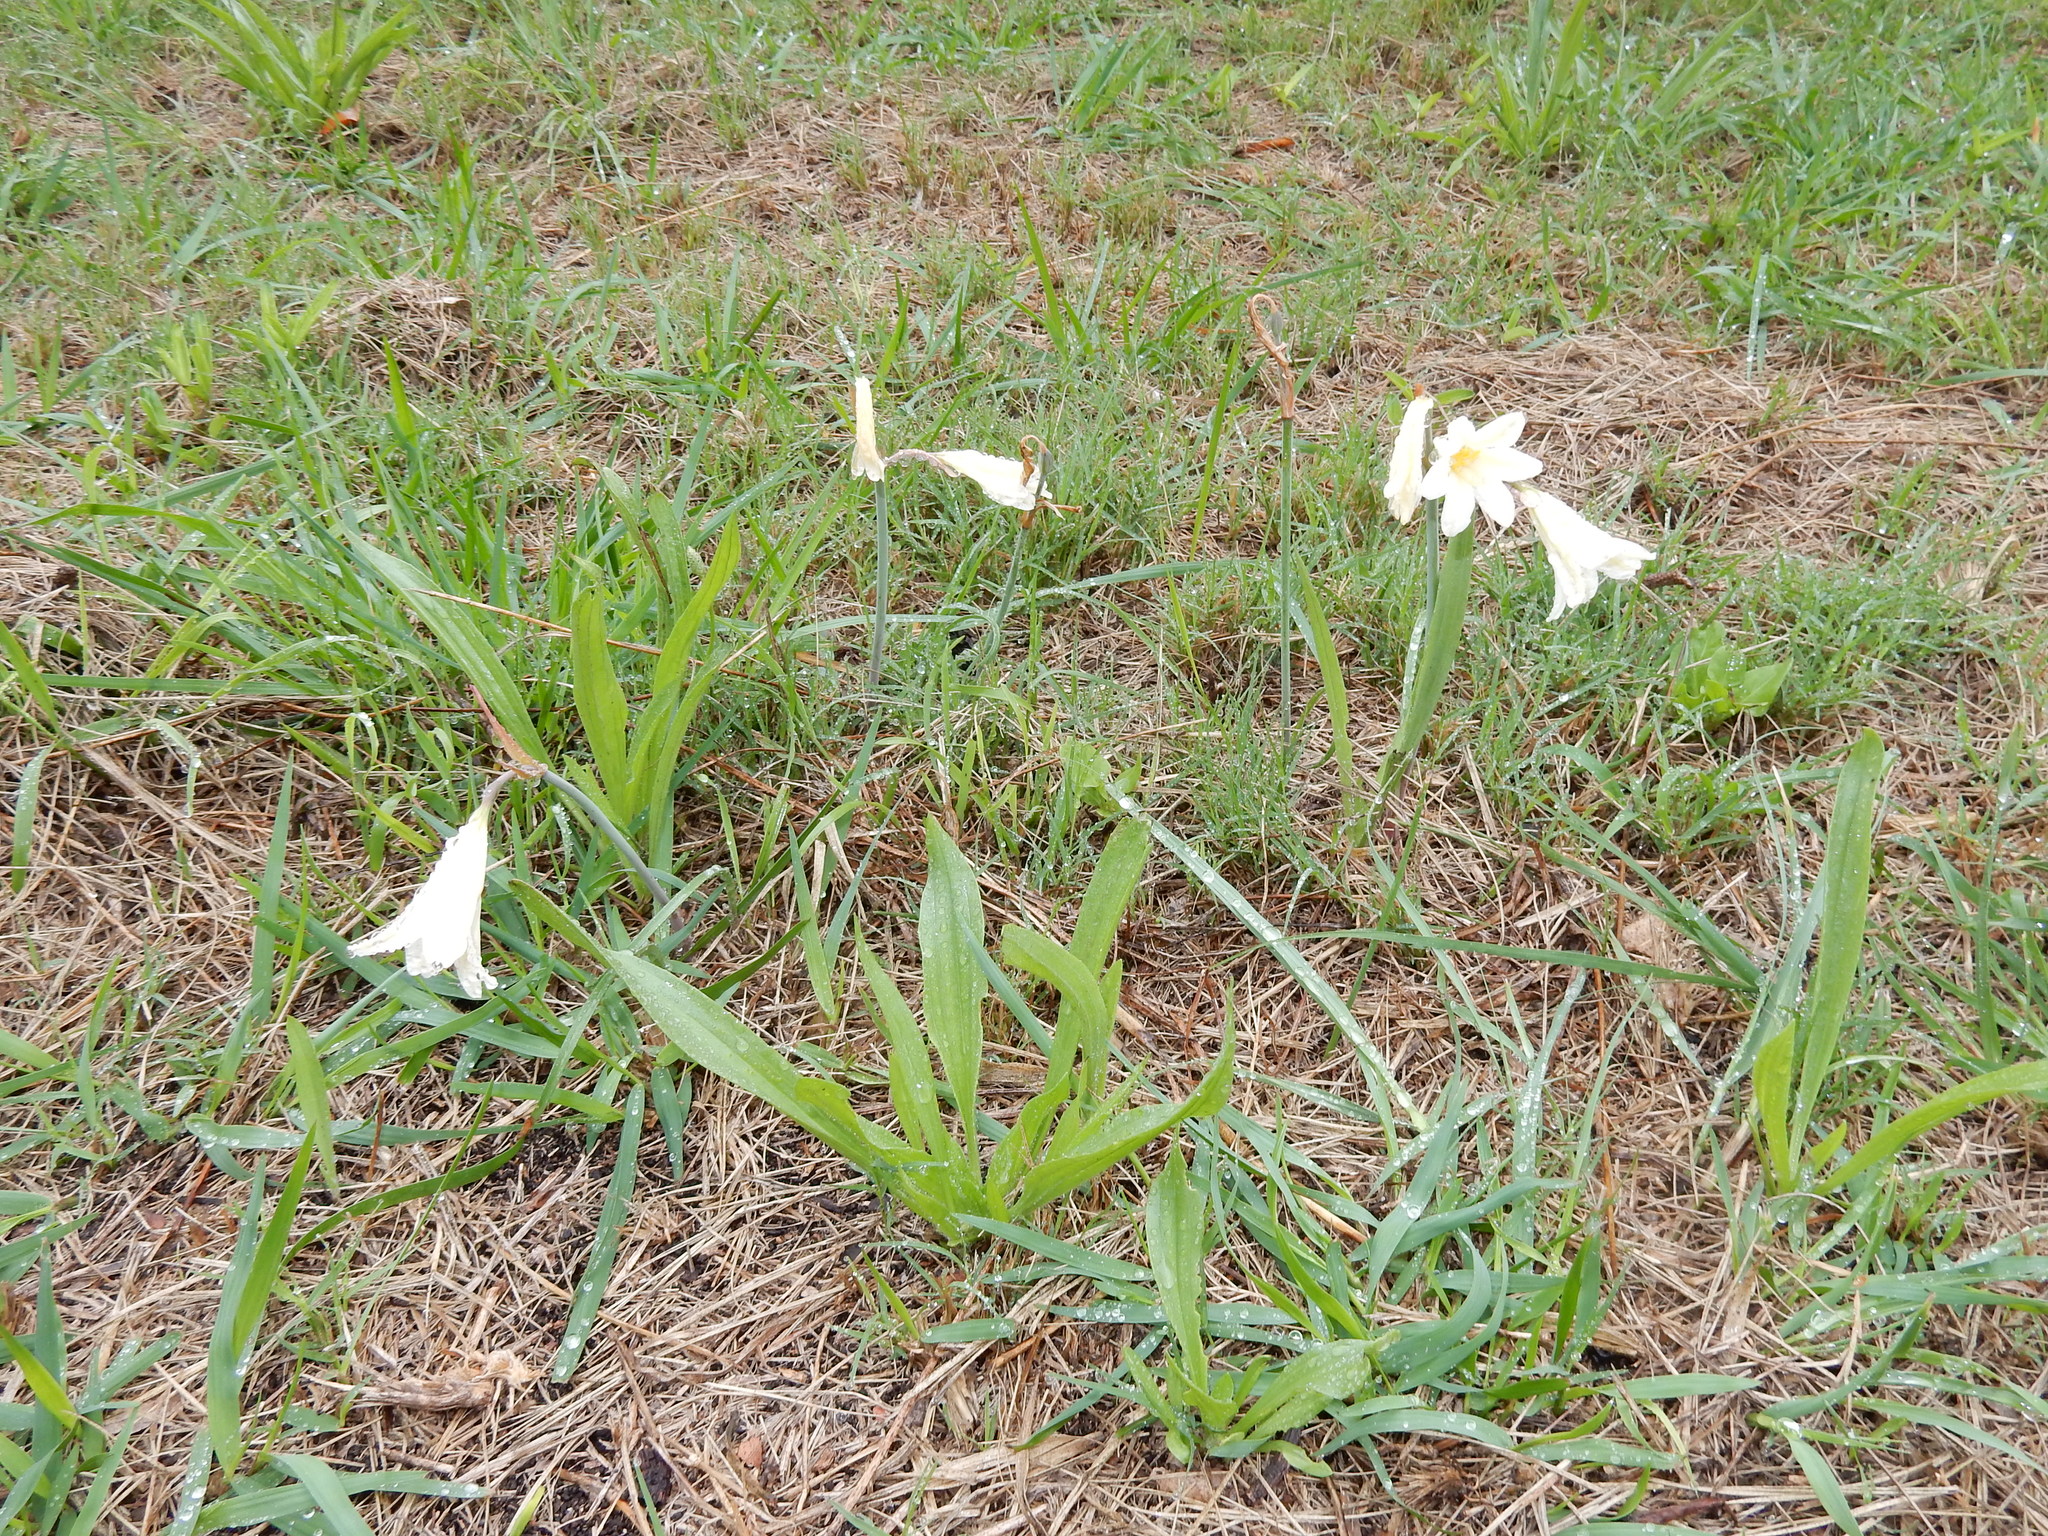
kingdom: Plantae
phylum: Tracheophyta
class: Liliopsida
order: Asparagales
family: Amaryllidaceae
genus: Cyrtanthus
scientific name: Cyrtanthus loddigesianus
